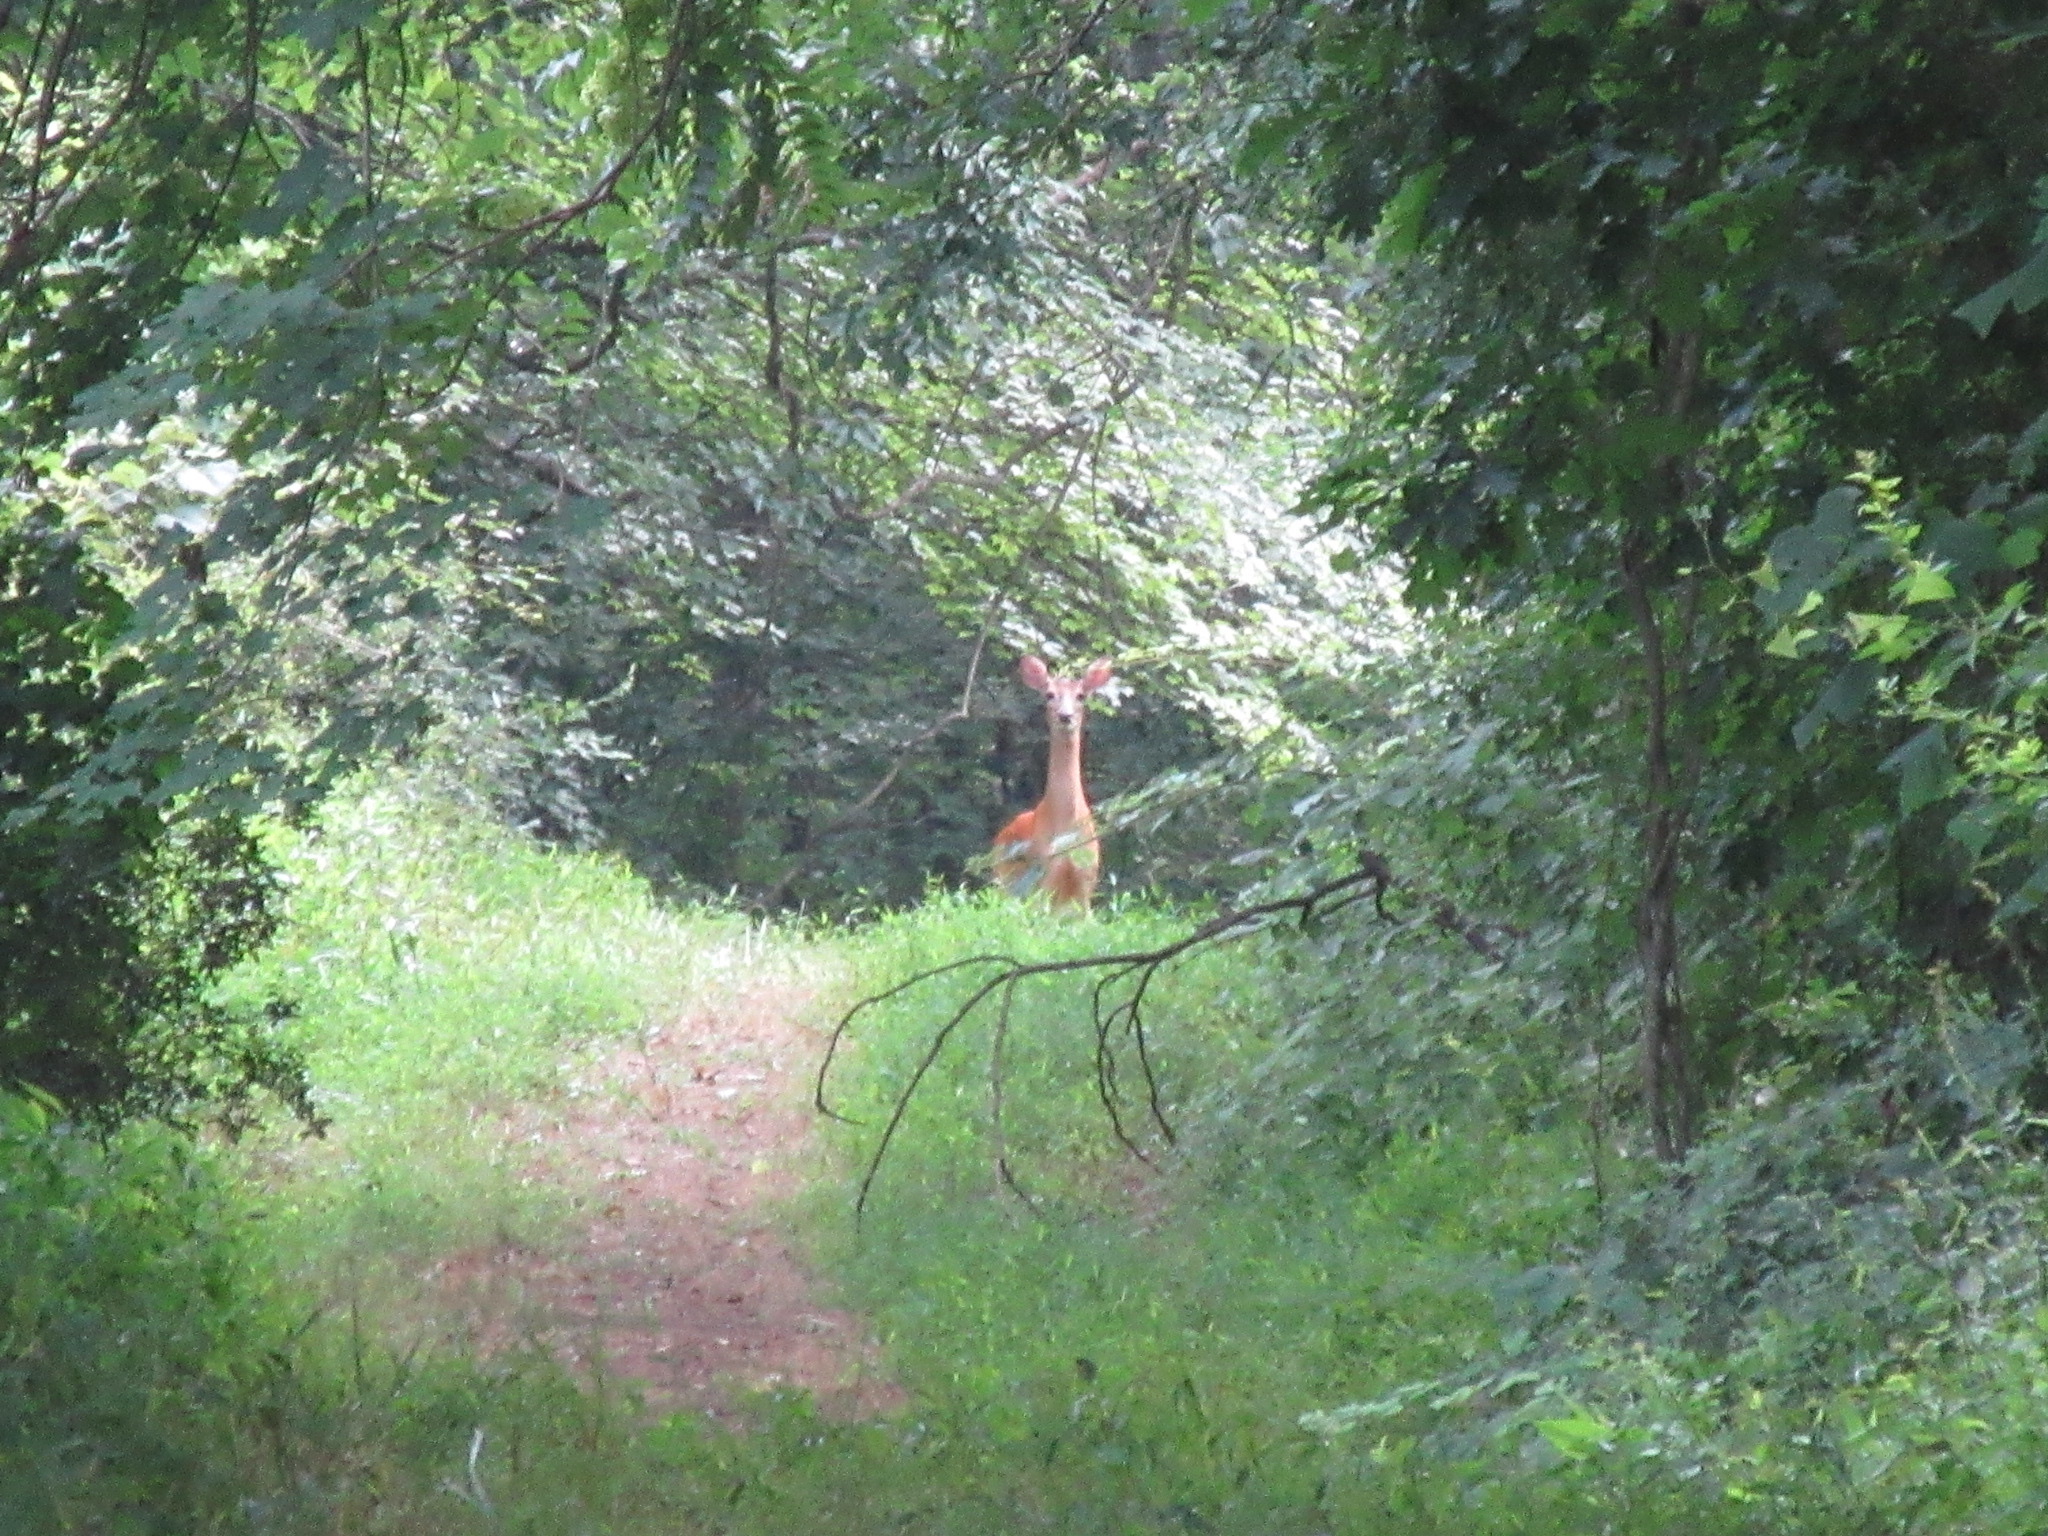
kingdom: Animalia
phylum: Chordata
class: Mammalia
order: Artiodactyla
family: Cervidae
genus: Odocoileus
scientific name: Odocoileus virginianus
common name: White-tailed deer
